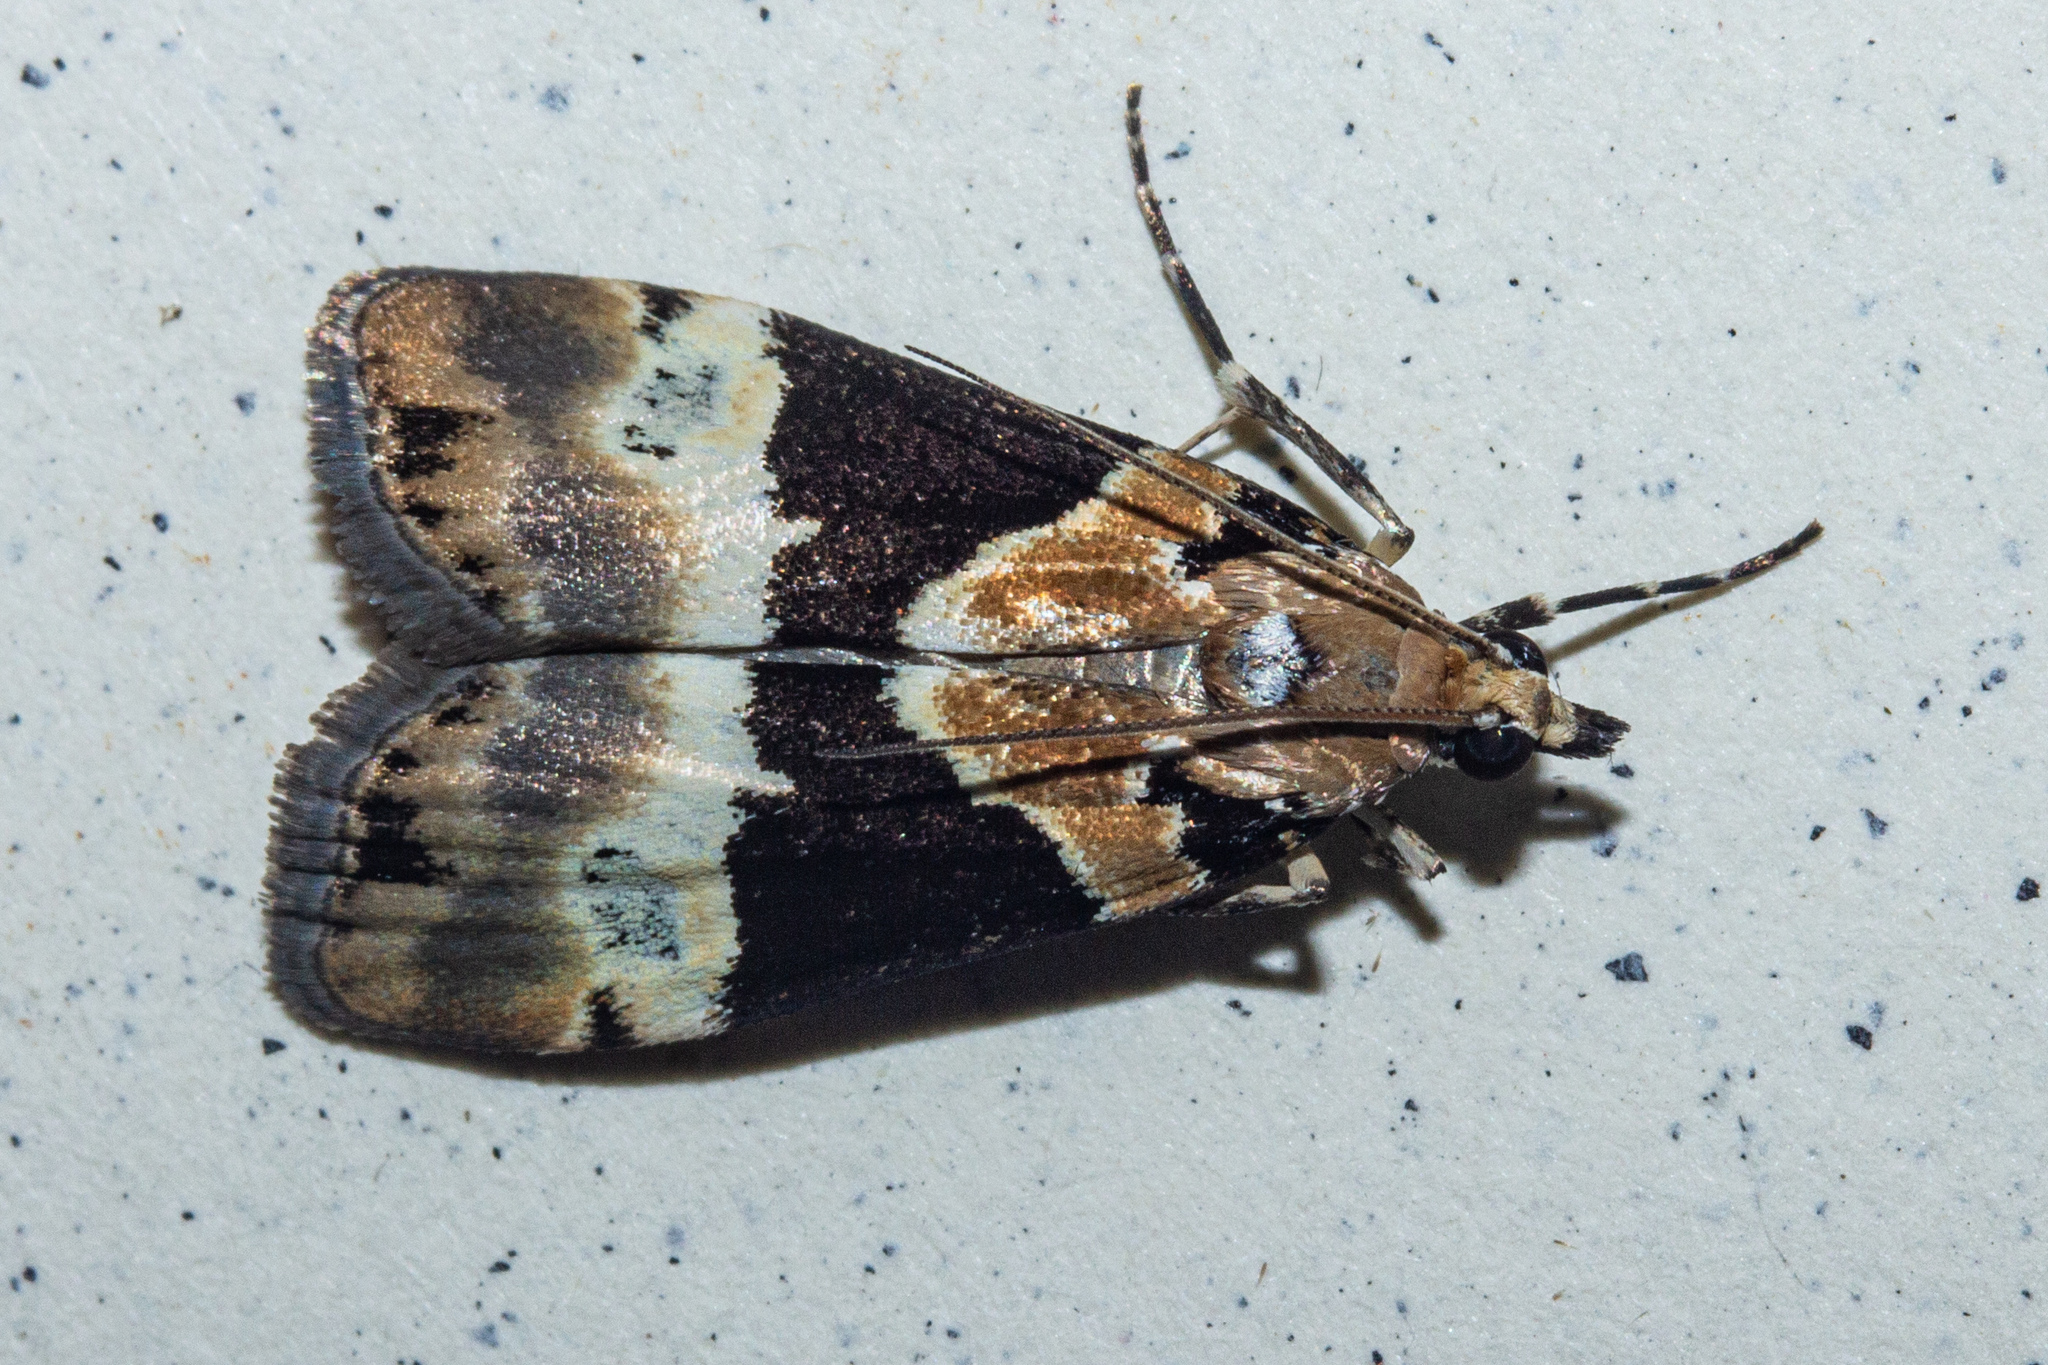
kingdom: Animalia
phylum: Arthropoda
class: Insecta
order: Lepidoptera
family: Crambidae
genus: Eudonia
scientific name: Eudonia aspidota
